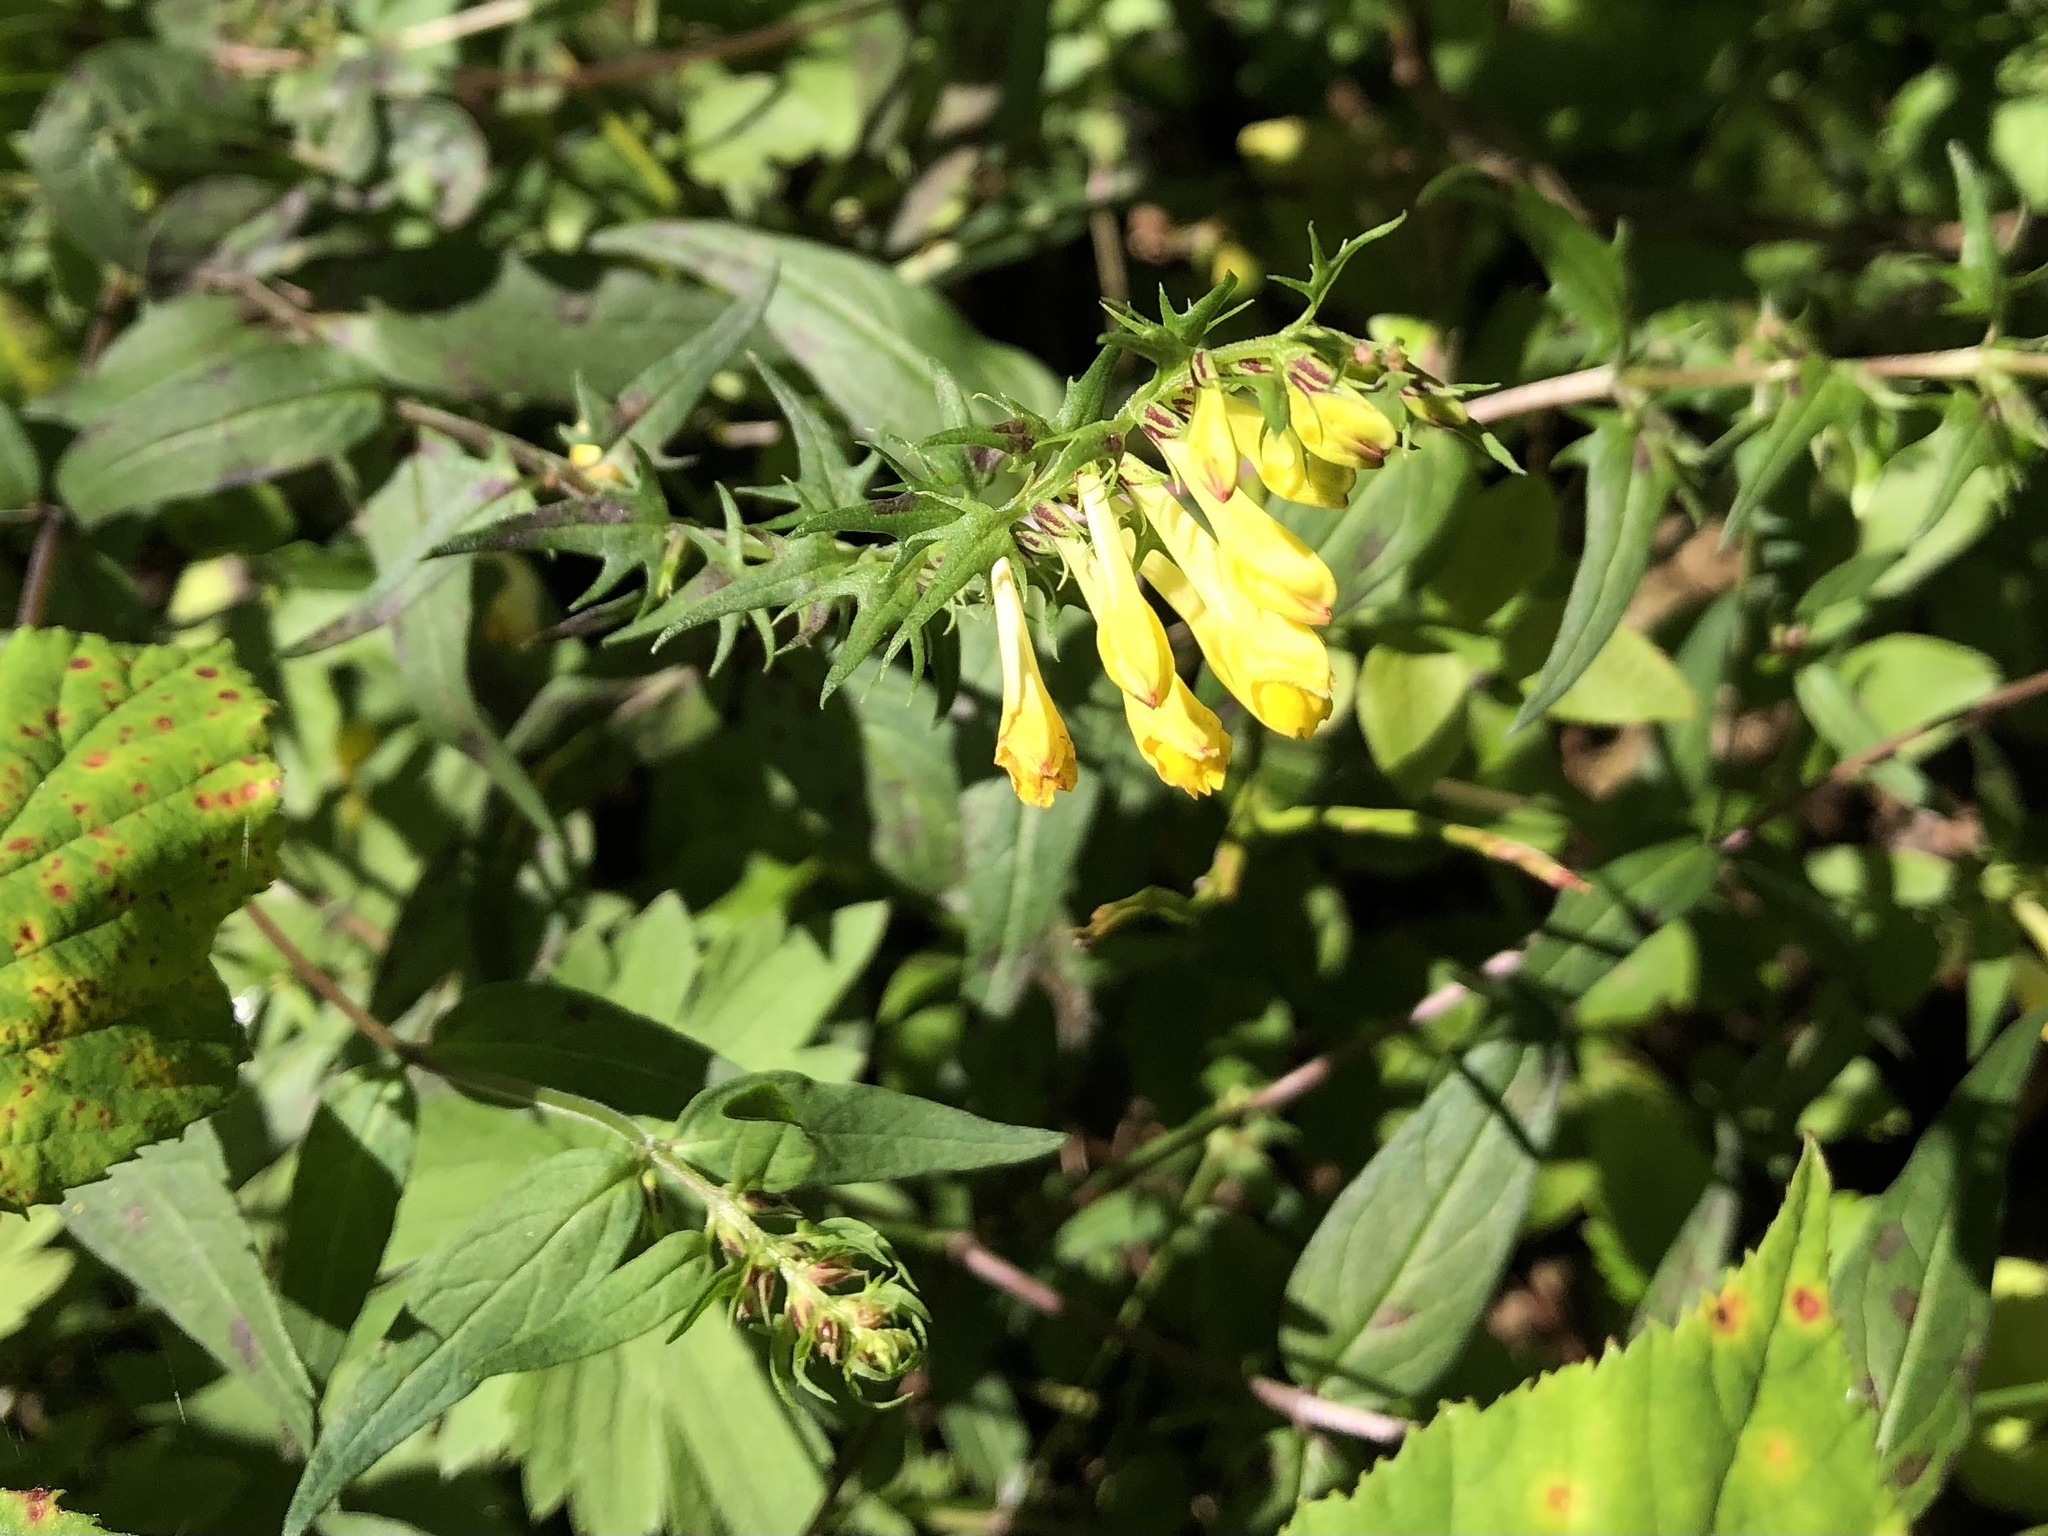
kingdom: Plantae
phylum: Tracheophyta
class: Magnoliopsida
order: Lamiales
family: Orobanchaceae
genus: Melampyrum
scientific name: Melampyrum pratense
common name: Common cow-wheat
